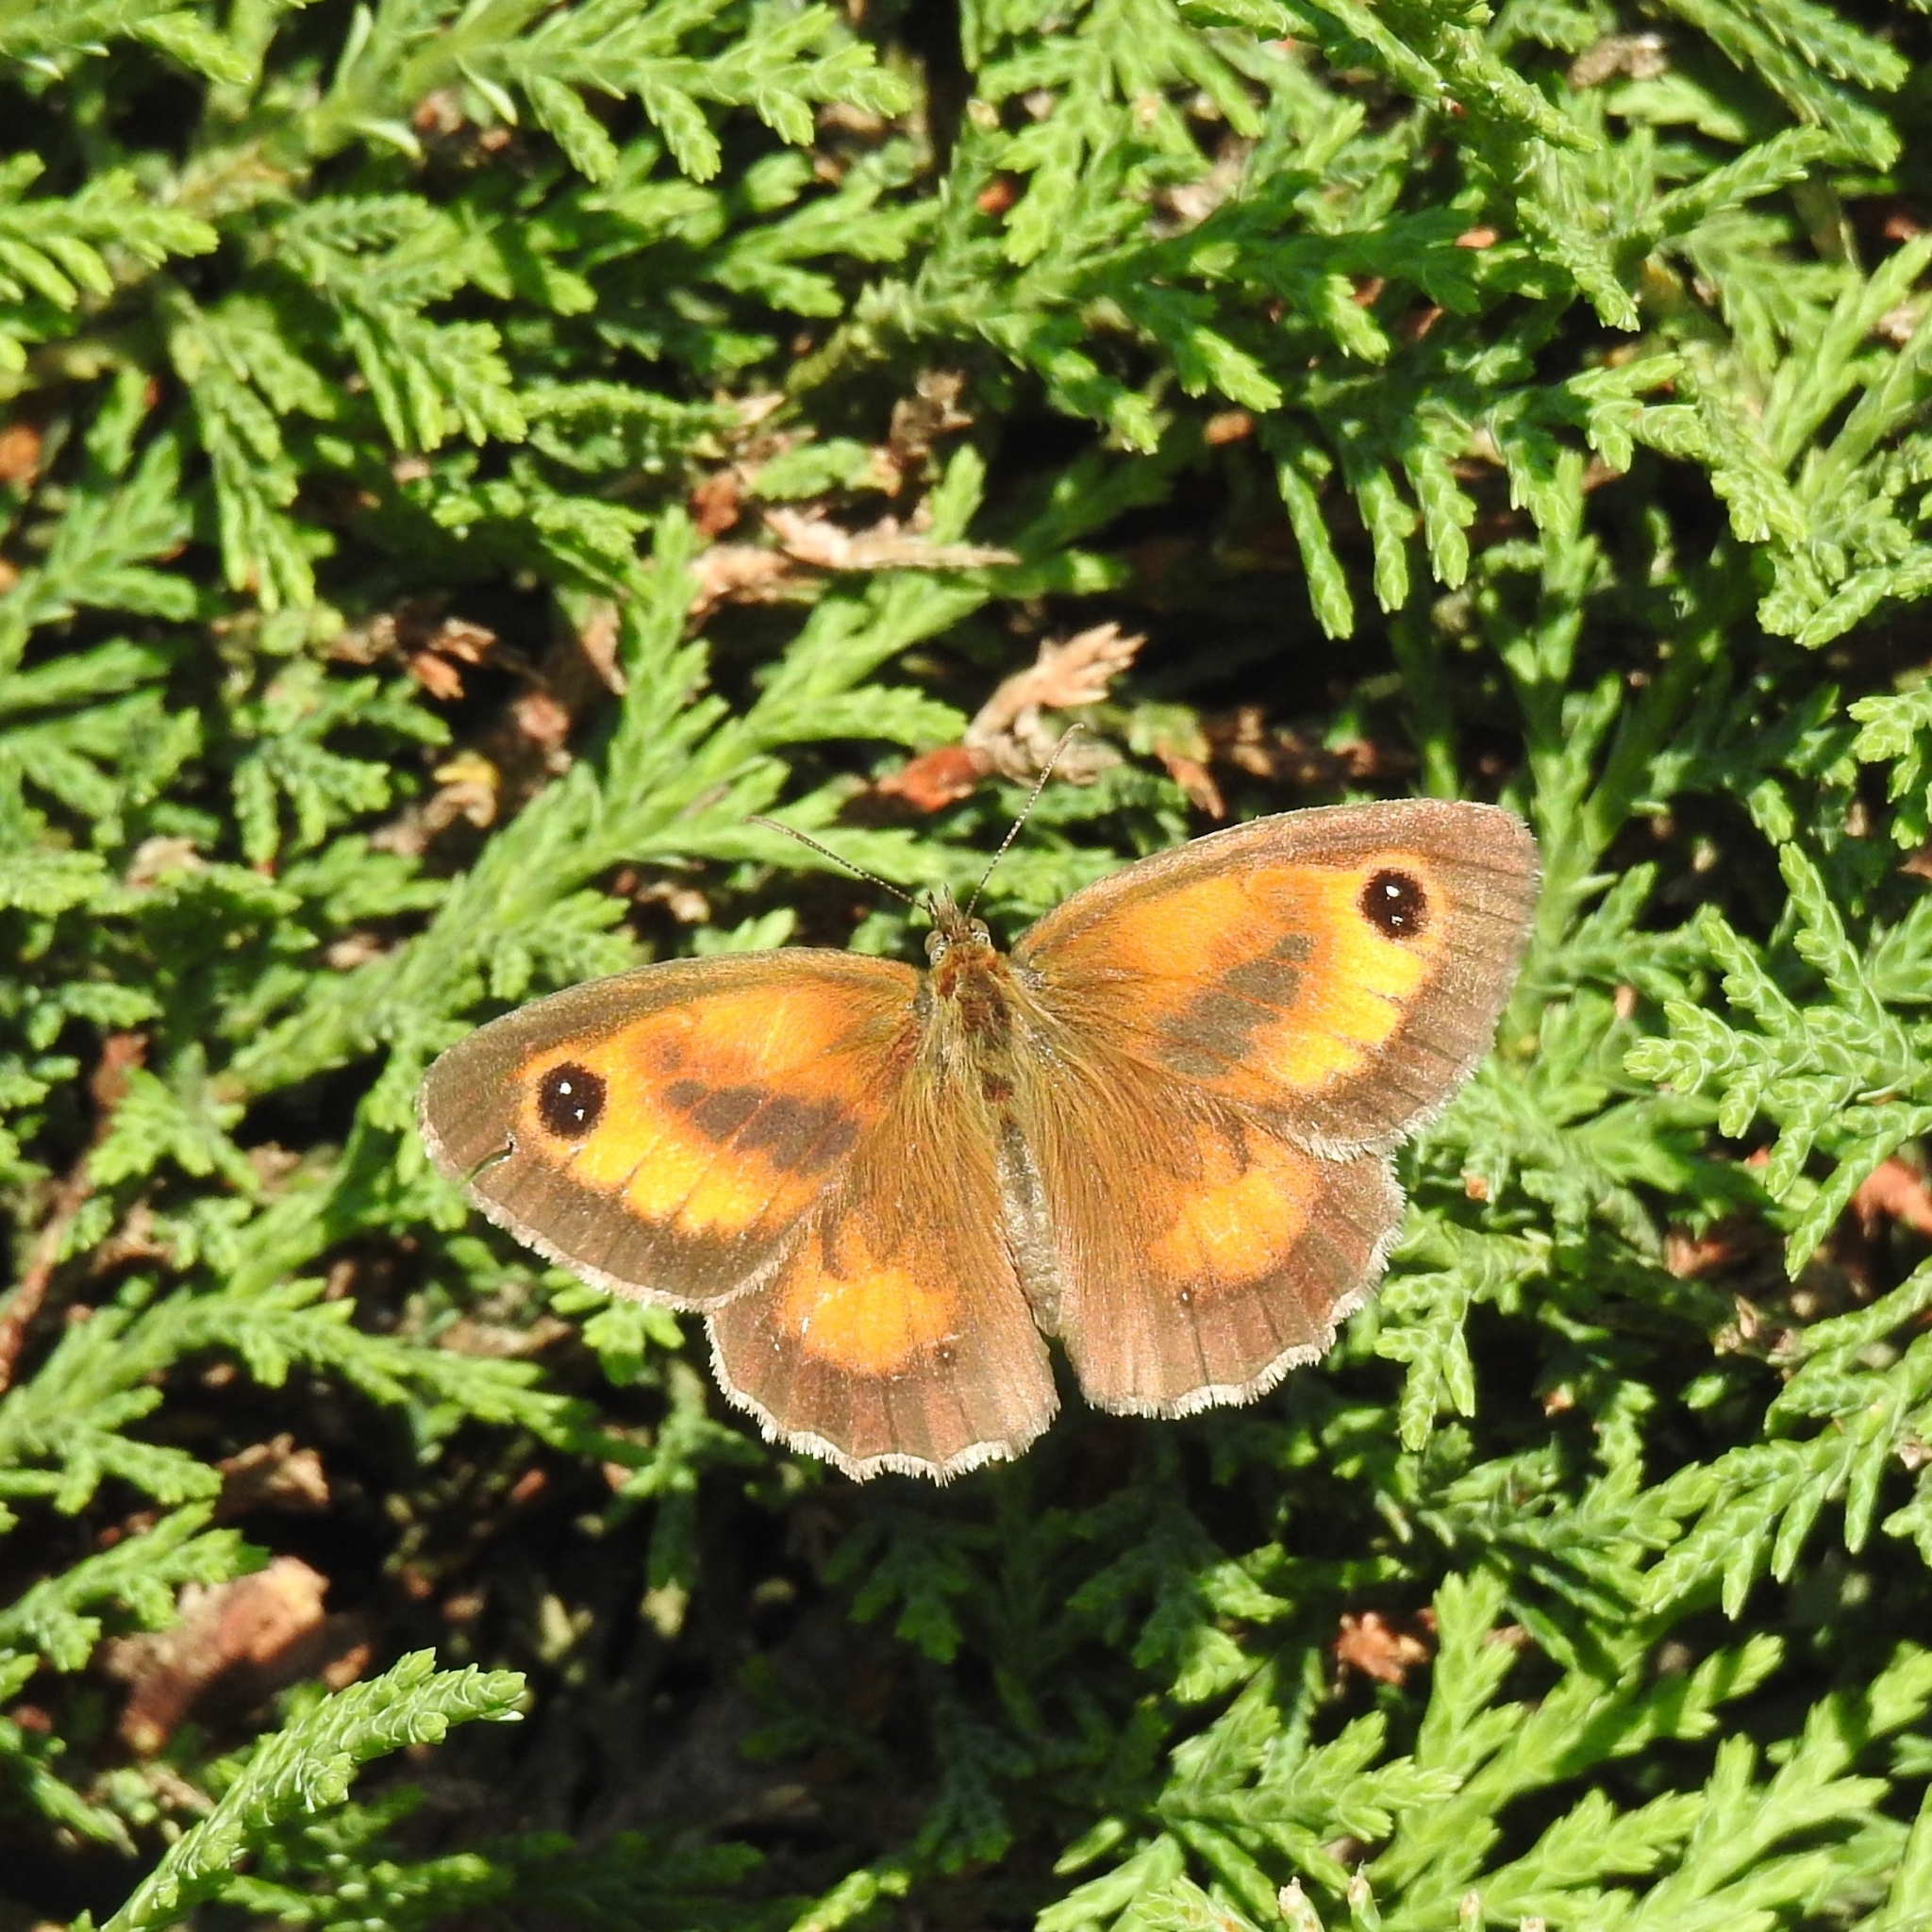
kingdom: Animalia
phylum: Arthropoda
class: Insecta
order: Lepidoptera
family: Nymphalidae
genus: Pyronia
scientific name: Pyronia tithonus
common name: Gatekeeper
